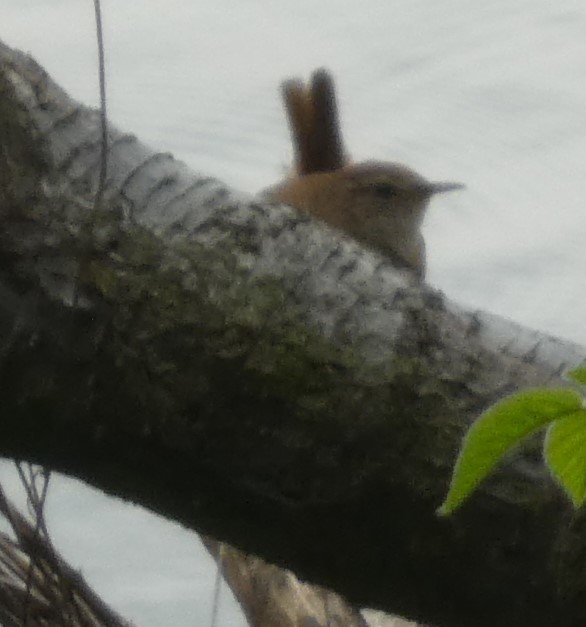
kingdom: Animalia
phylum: Chordata
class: Aves
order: Passeriformes
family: Troglodytidae
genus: Troglodytes
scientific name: Troglodytes troglodytes
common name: Eurasian wren
